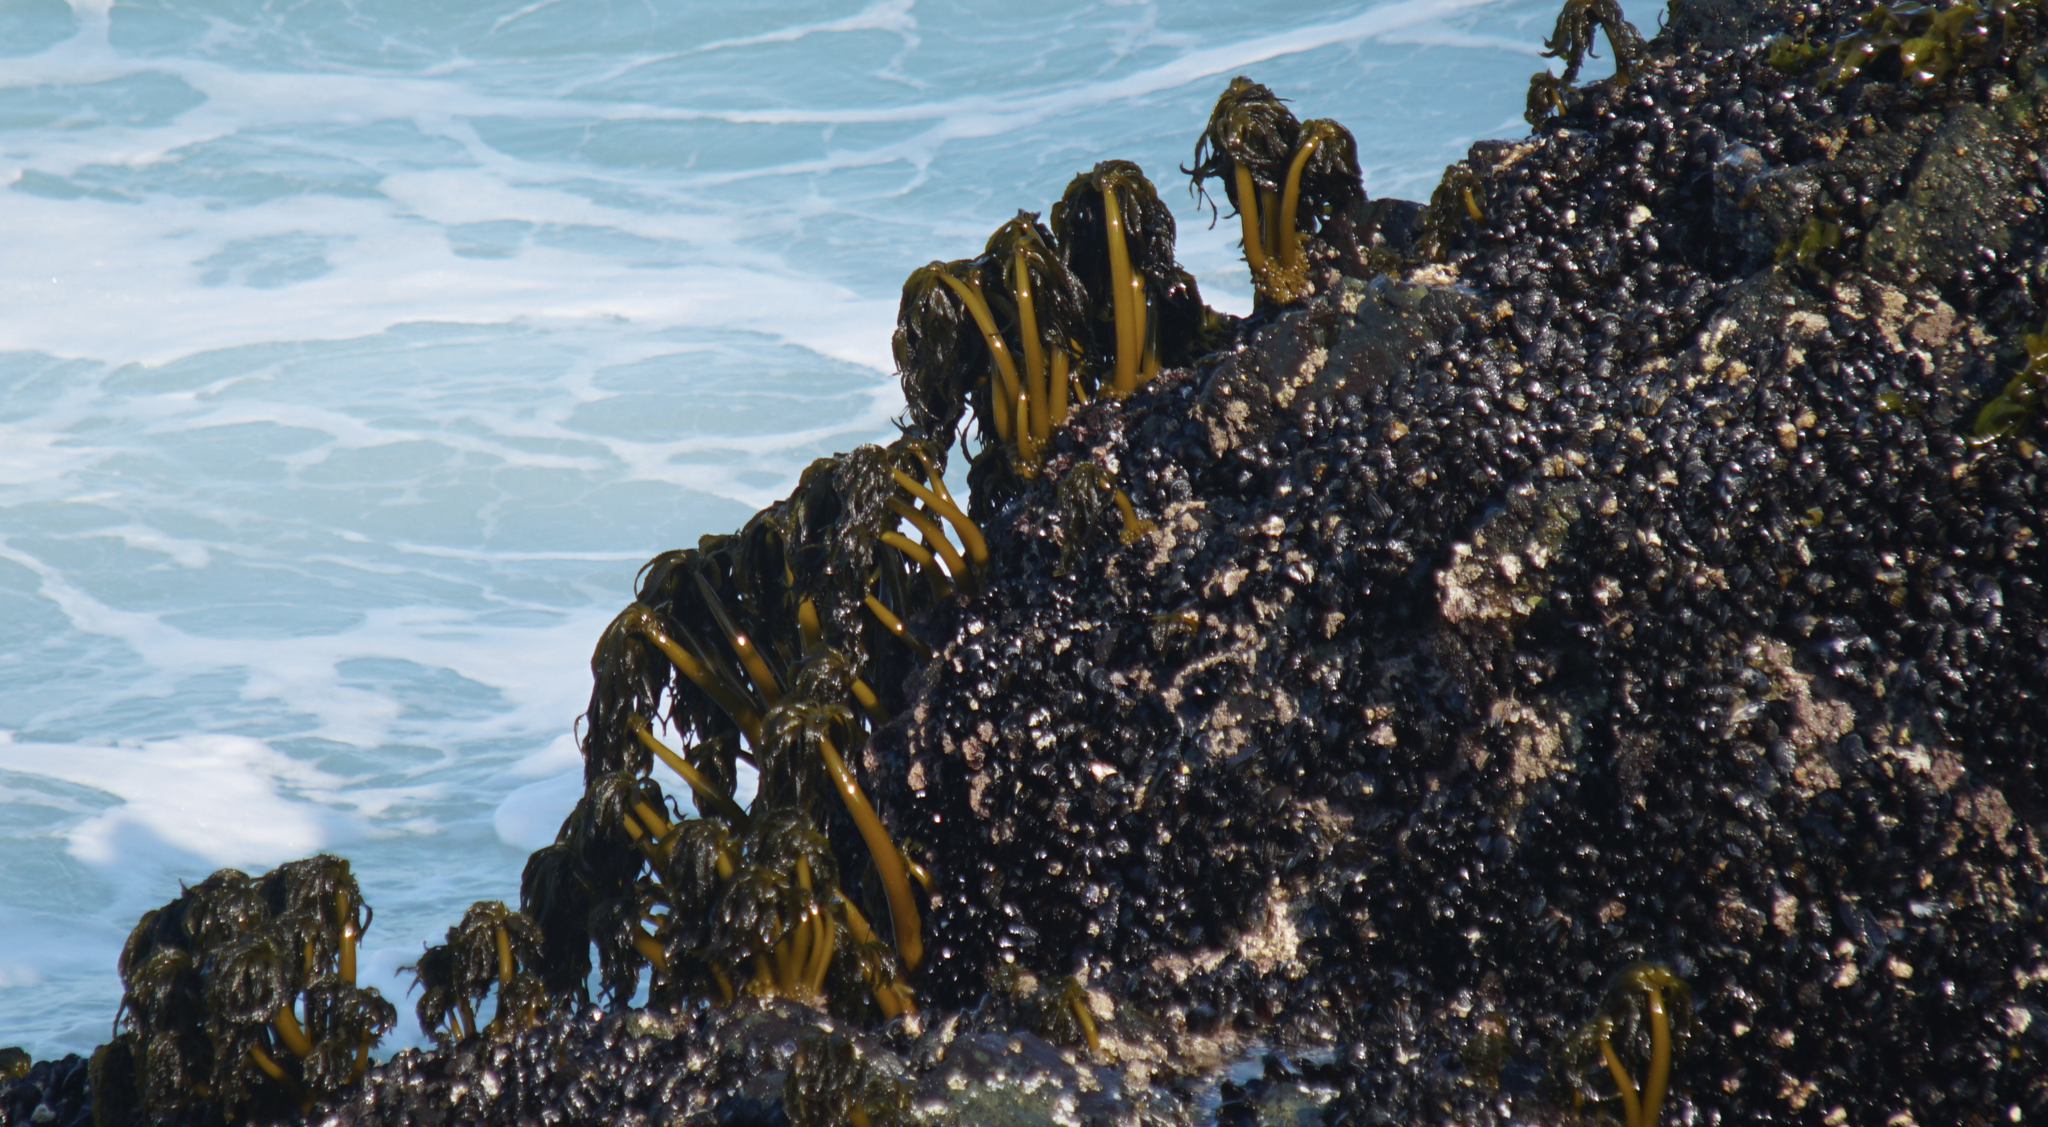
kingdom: Chromista
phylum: Ochrophyta
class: Phaeophyceae
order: Laminariales
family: Laminariaceae
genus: Postelsia
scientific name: Postelsia palmiformis
